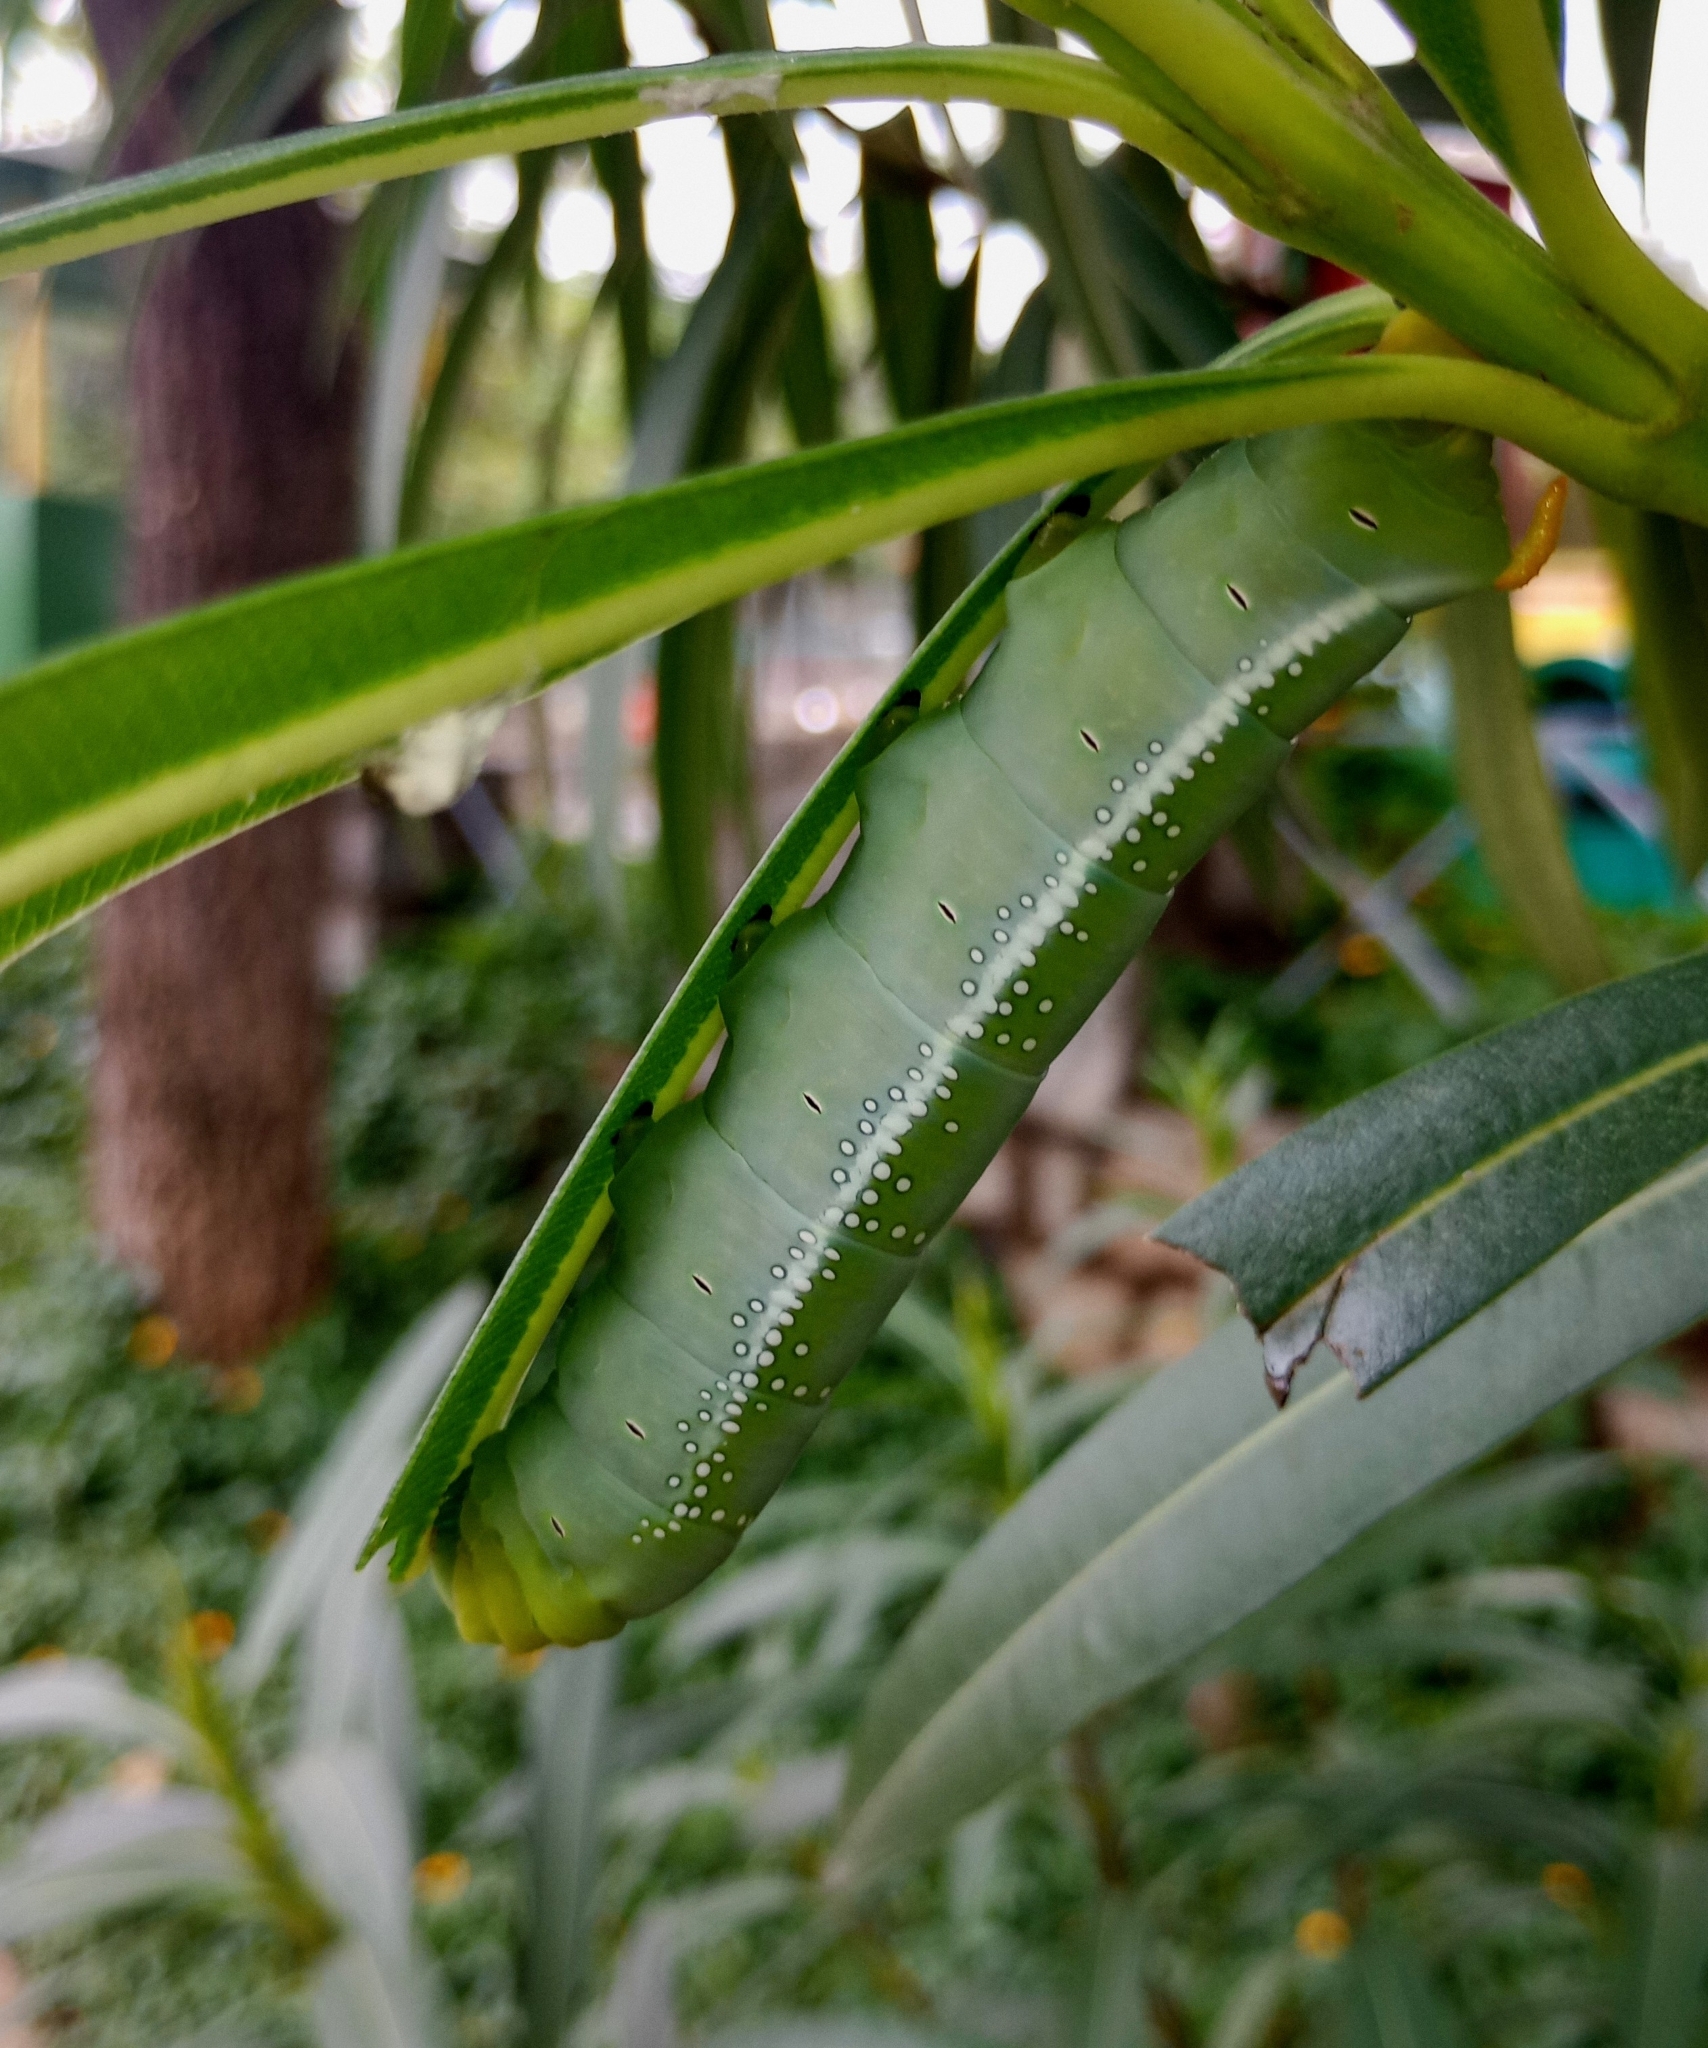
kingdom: Animalia
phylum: Arthropoda
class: Insecta
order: Lepidoptera
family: Sphingidae
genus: Daphnis
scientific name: Daphnis nerii
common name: Oleander hawk-moth
